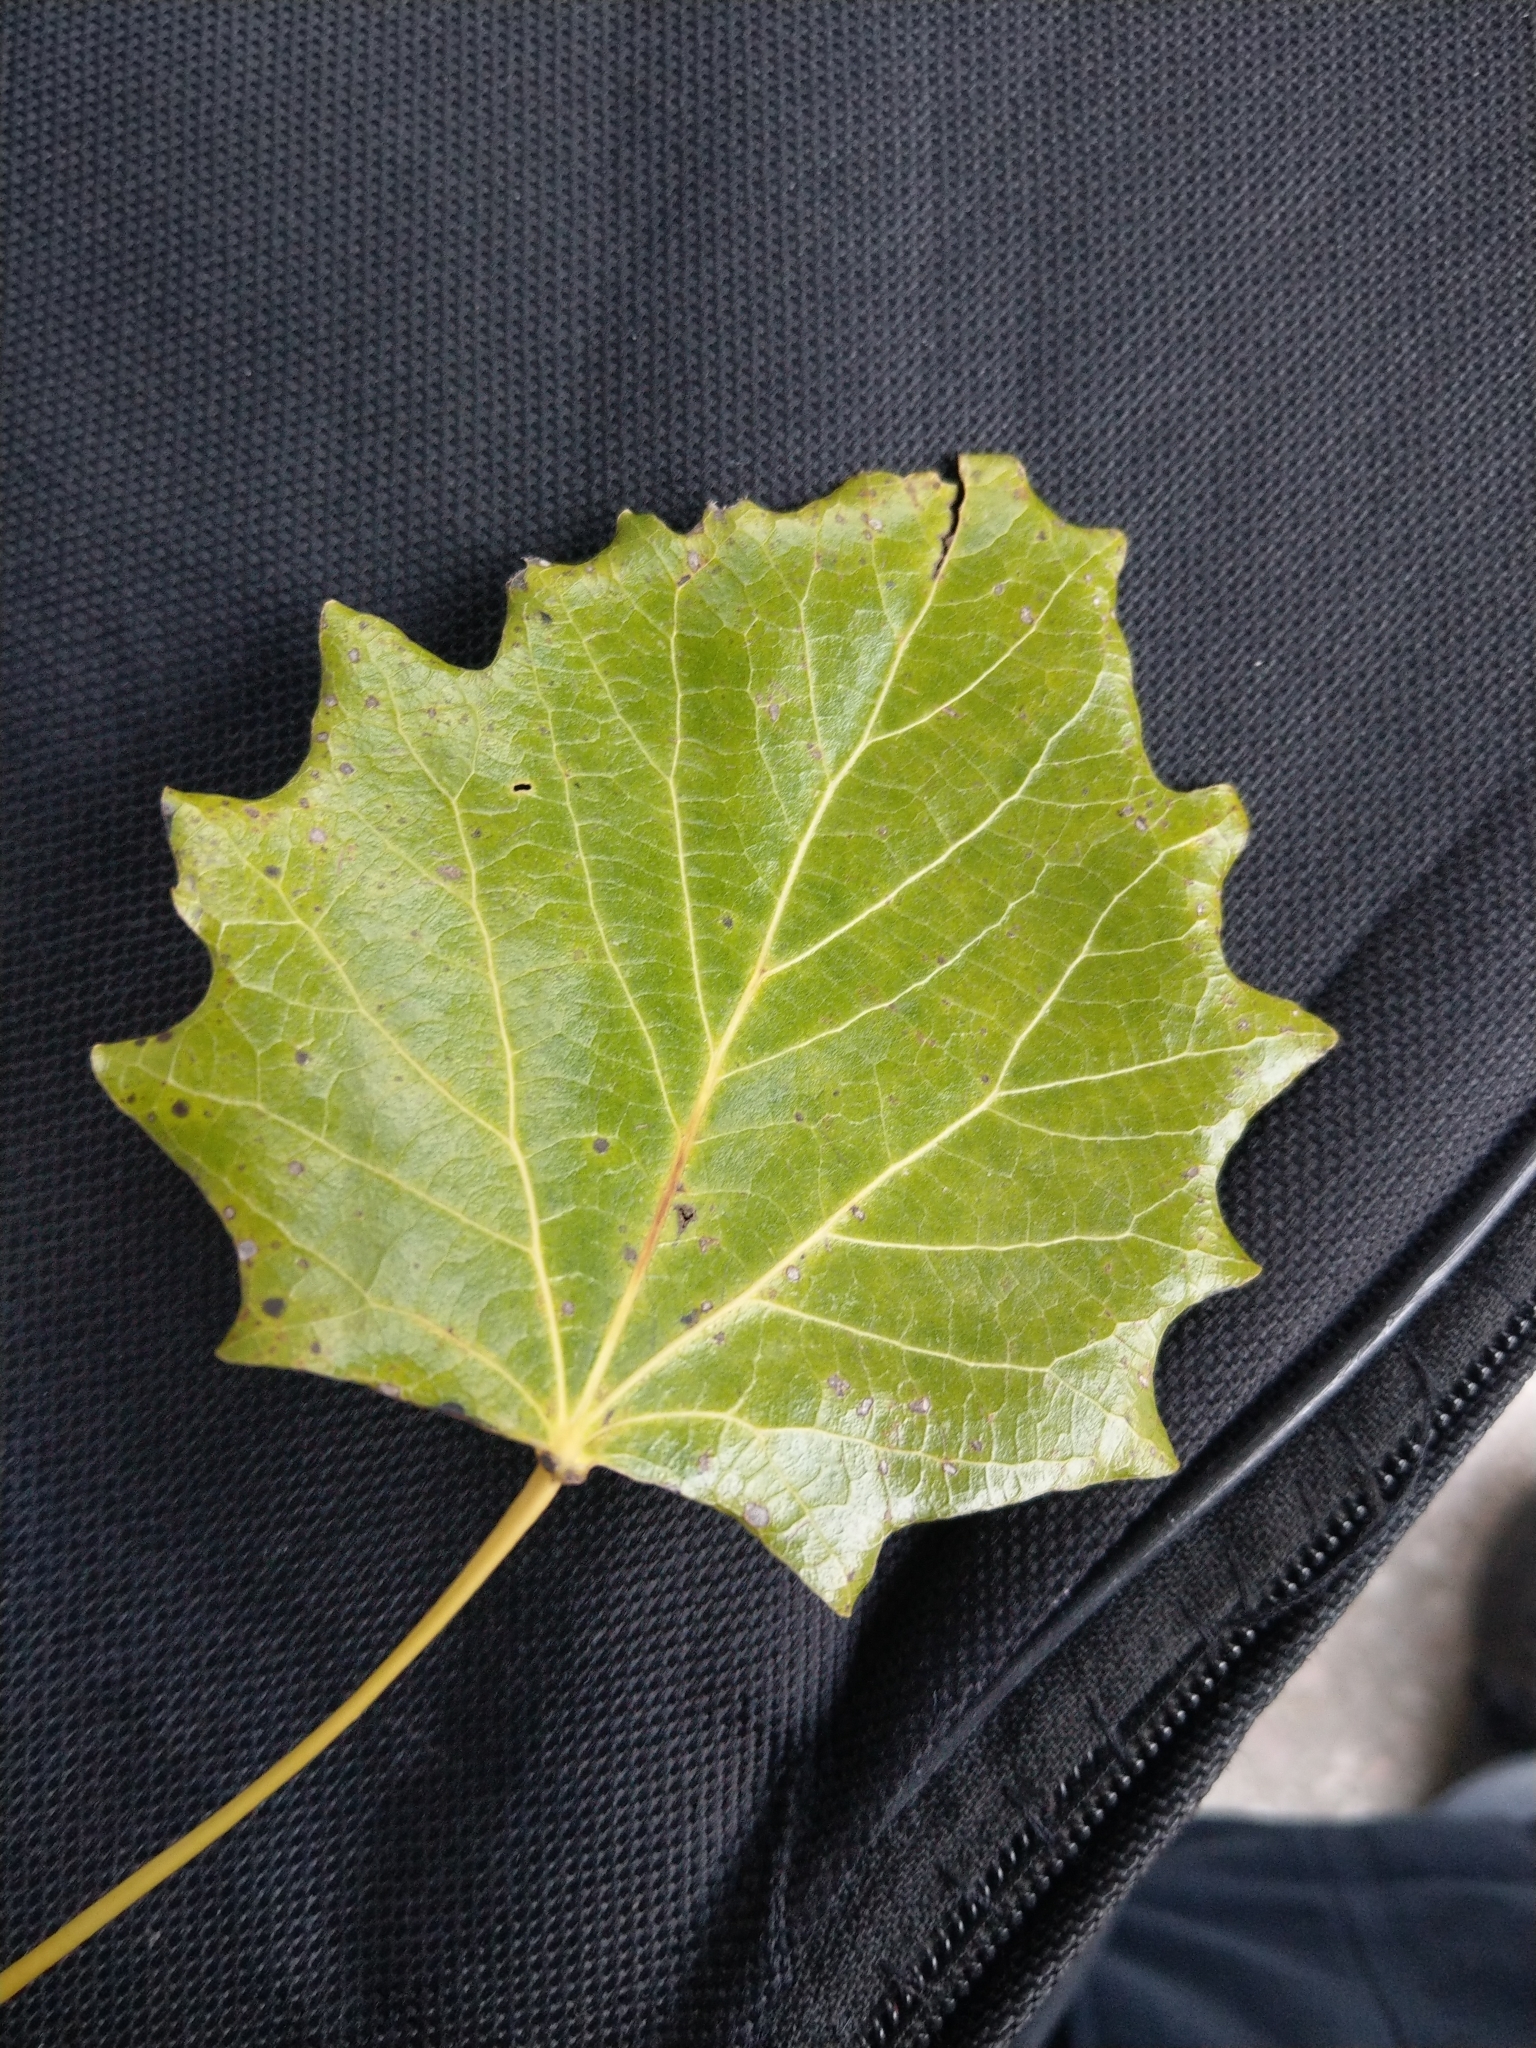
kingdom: Plantae
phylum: Tracheophyta
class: Magnoliopsida
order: Malpighiales
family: Salicaceae
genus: Populus
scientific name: Populus tremula
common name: European aspen
